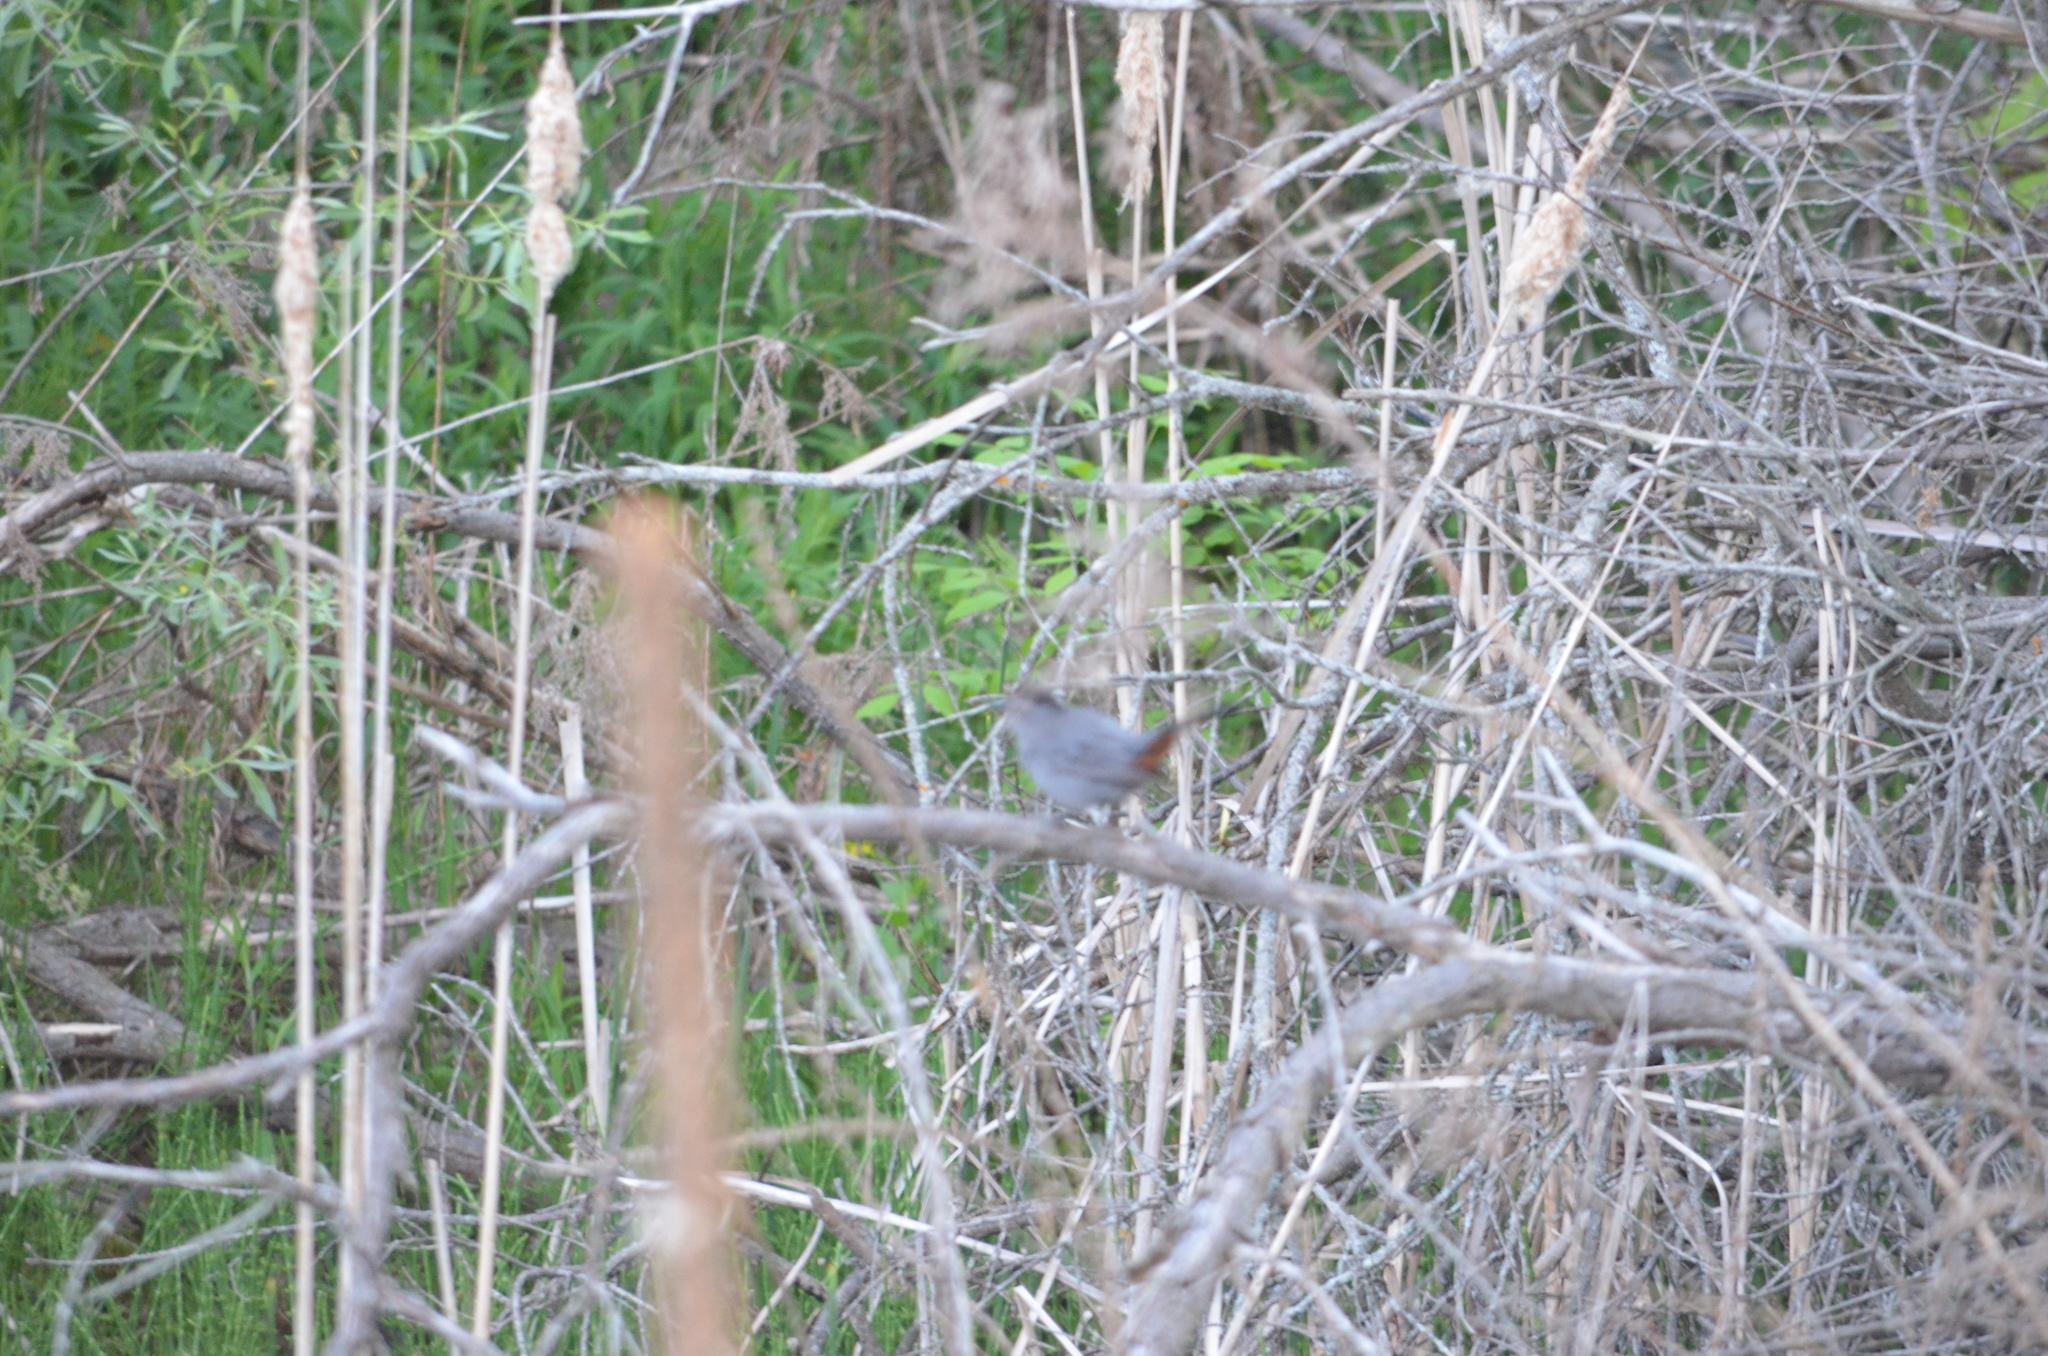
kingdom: Animalia
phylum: Chordata
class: Aves
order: Passeriformes
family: Mimidae
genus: Dumetella
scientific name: Dumetella carolinensis
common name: Gray catbird
